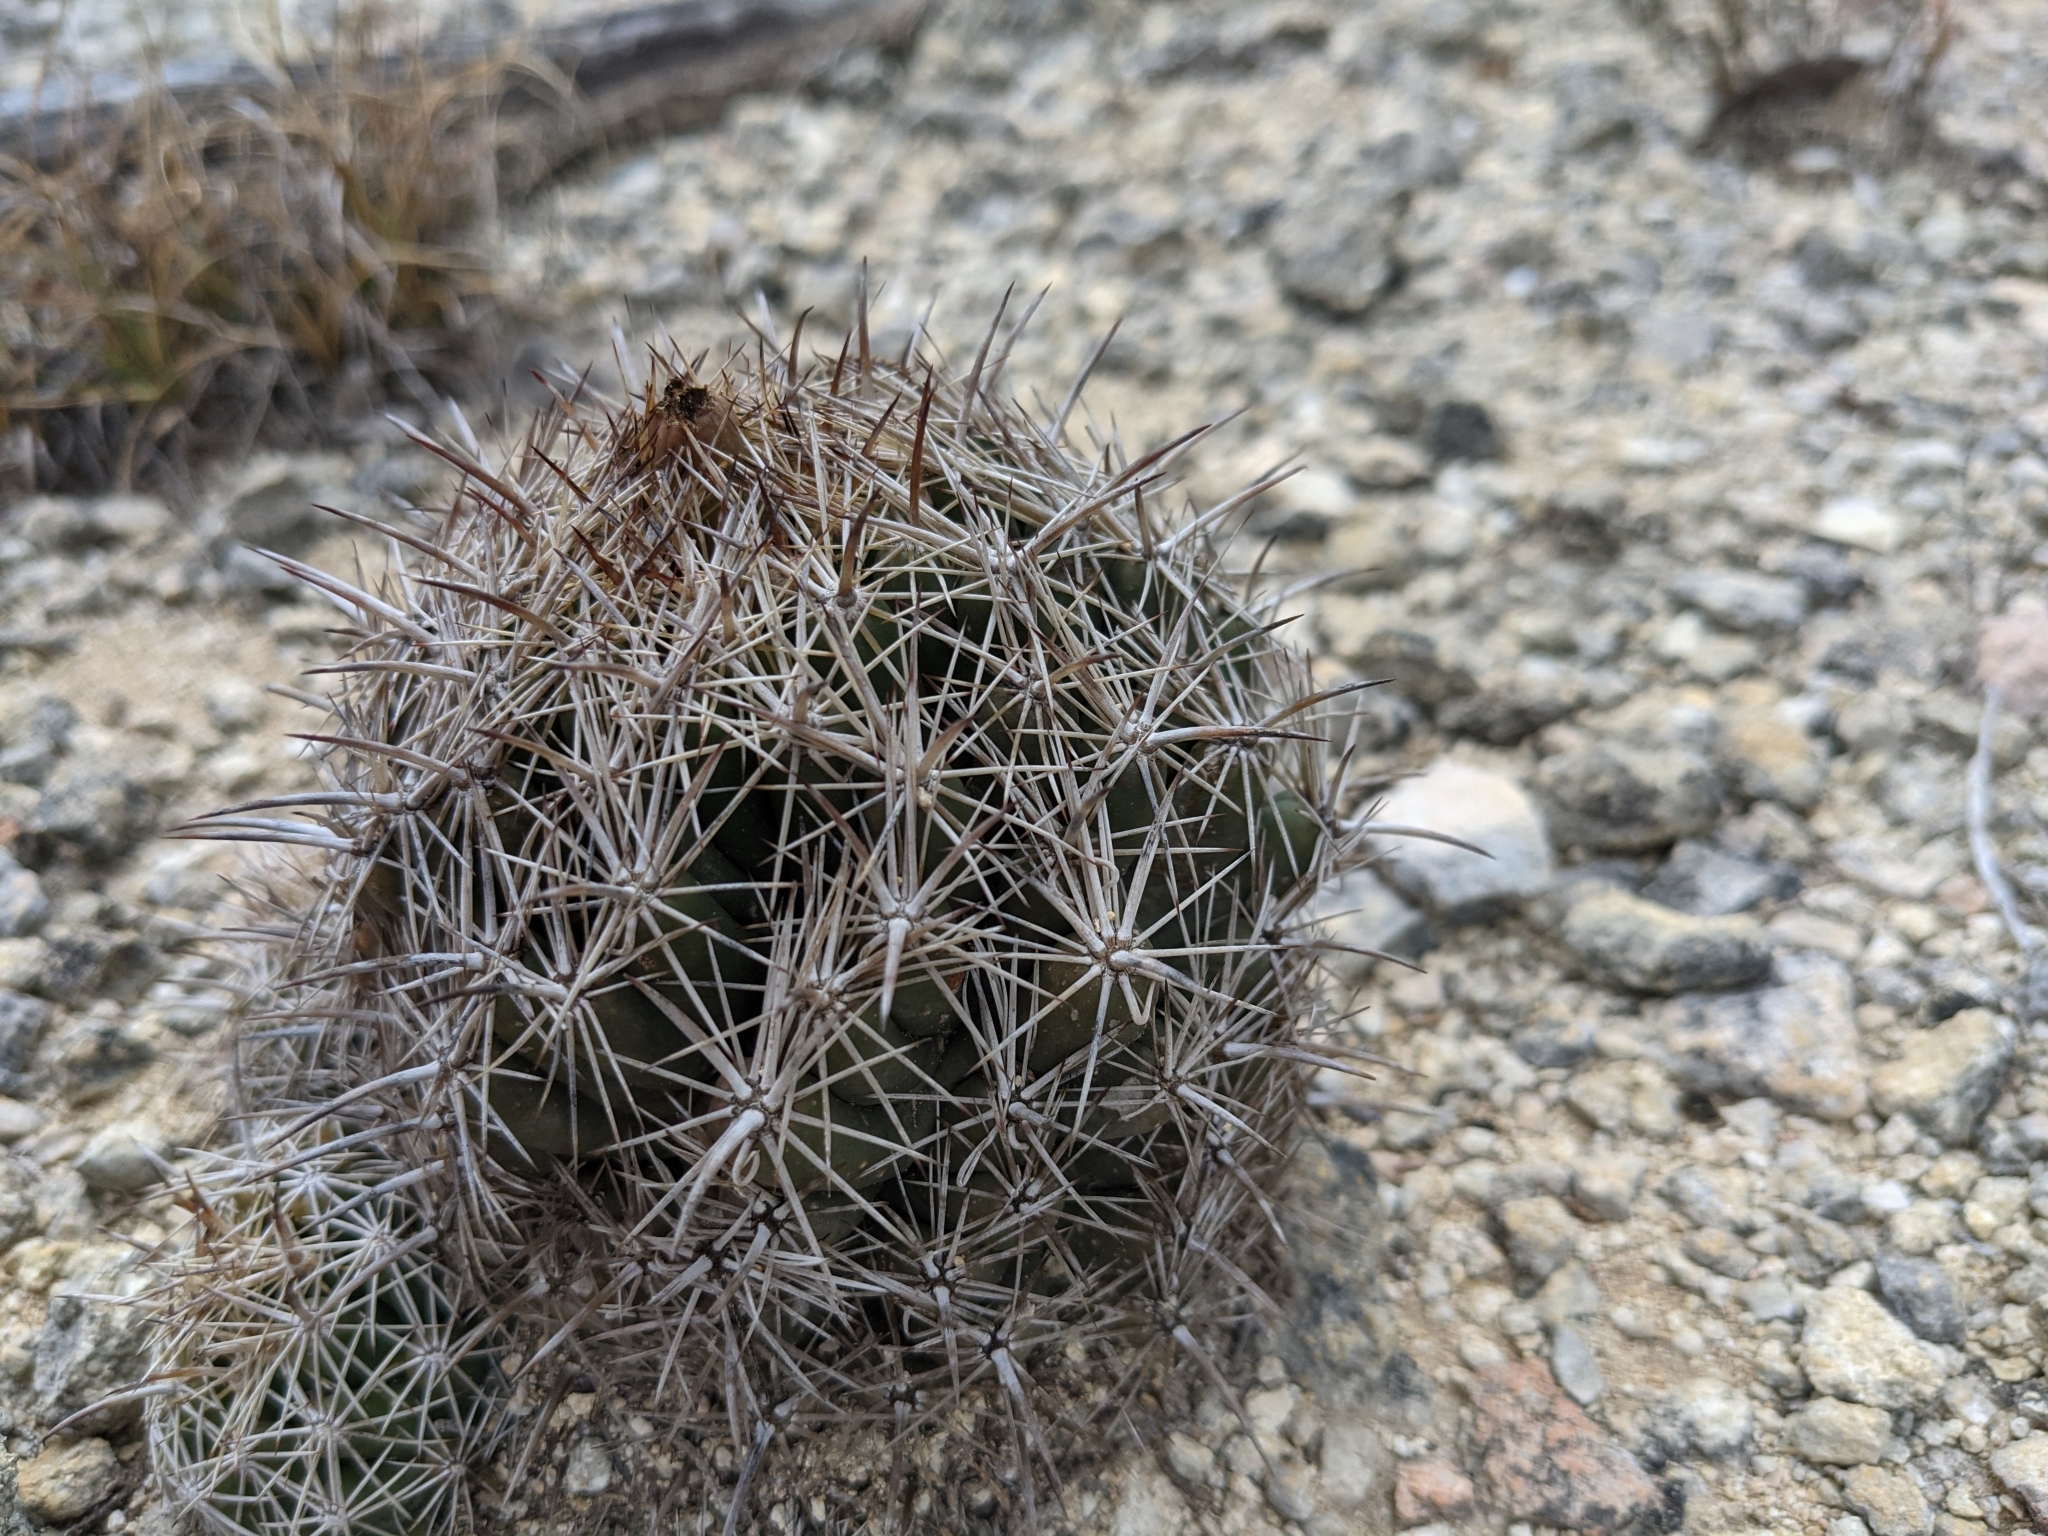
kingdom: Plantae
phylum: Tracheophyta
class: Magnoliopsida
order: Caryophyllales
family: Cactaceae
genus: Coryphantha
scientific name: Coryphantha sulcata
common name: Finger cactus
